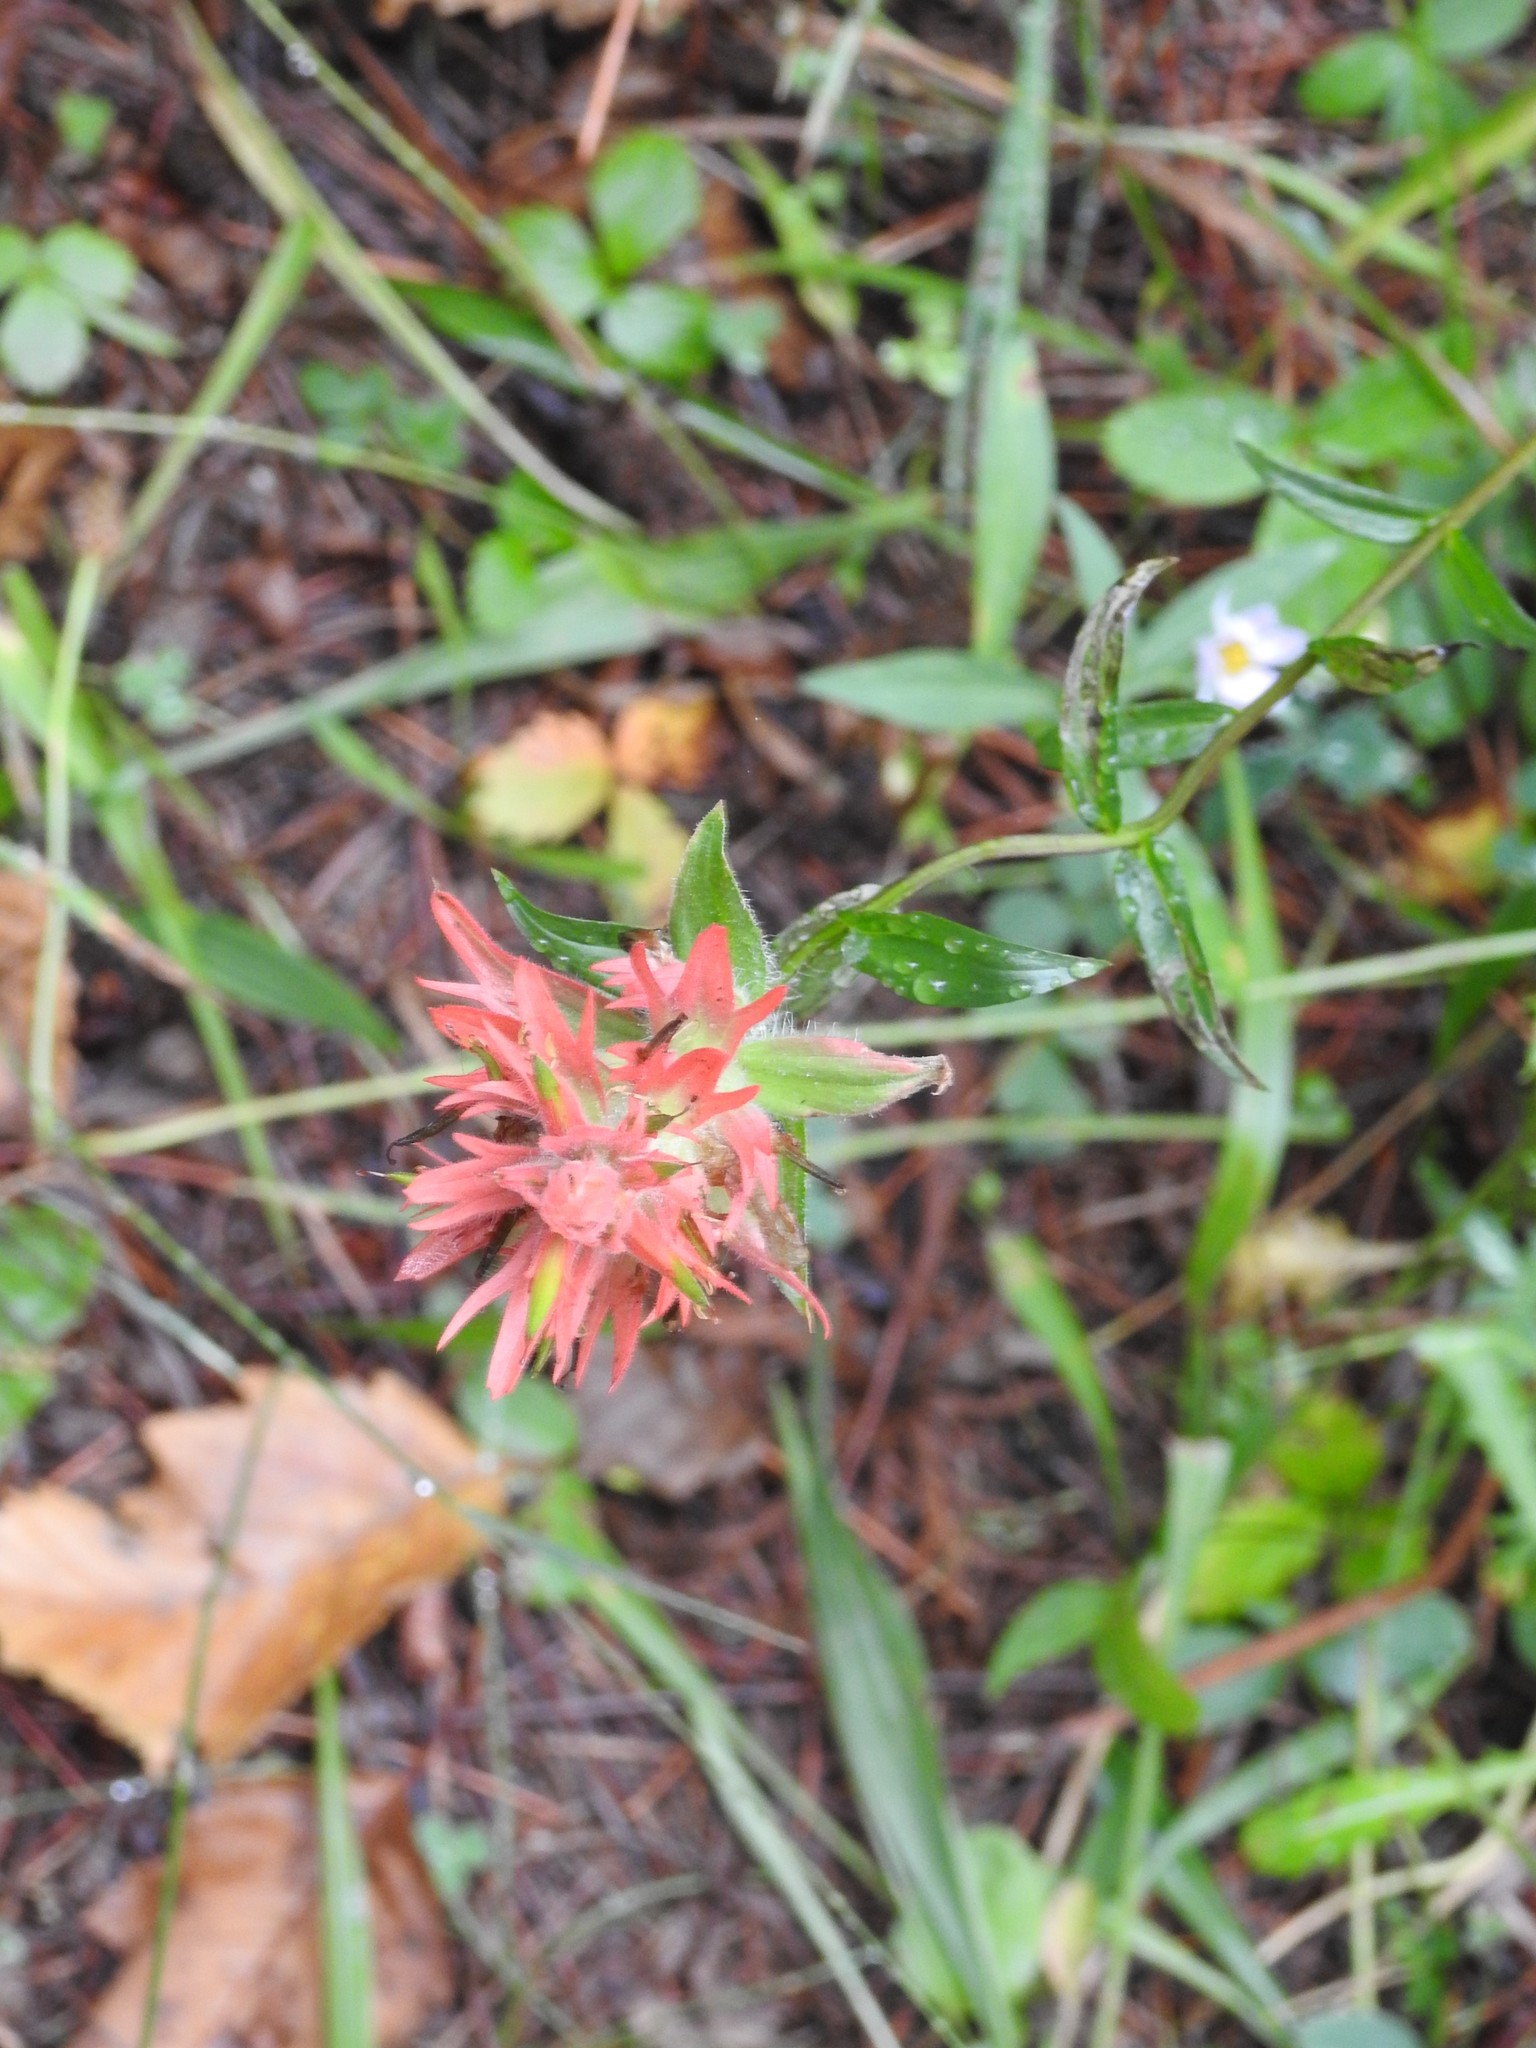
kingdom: Plantae
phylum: Tracheophyta
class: Magnoliopsida
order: Lamiales
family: Orobanchaceae
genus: Castilleja
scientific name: Castilleja miniata
